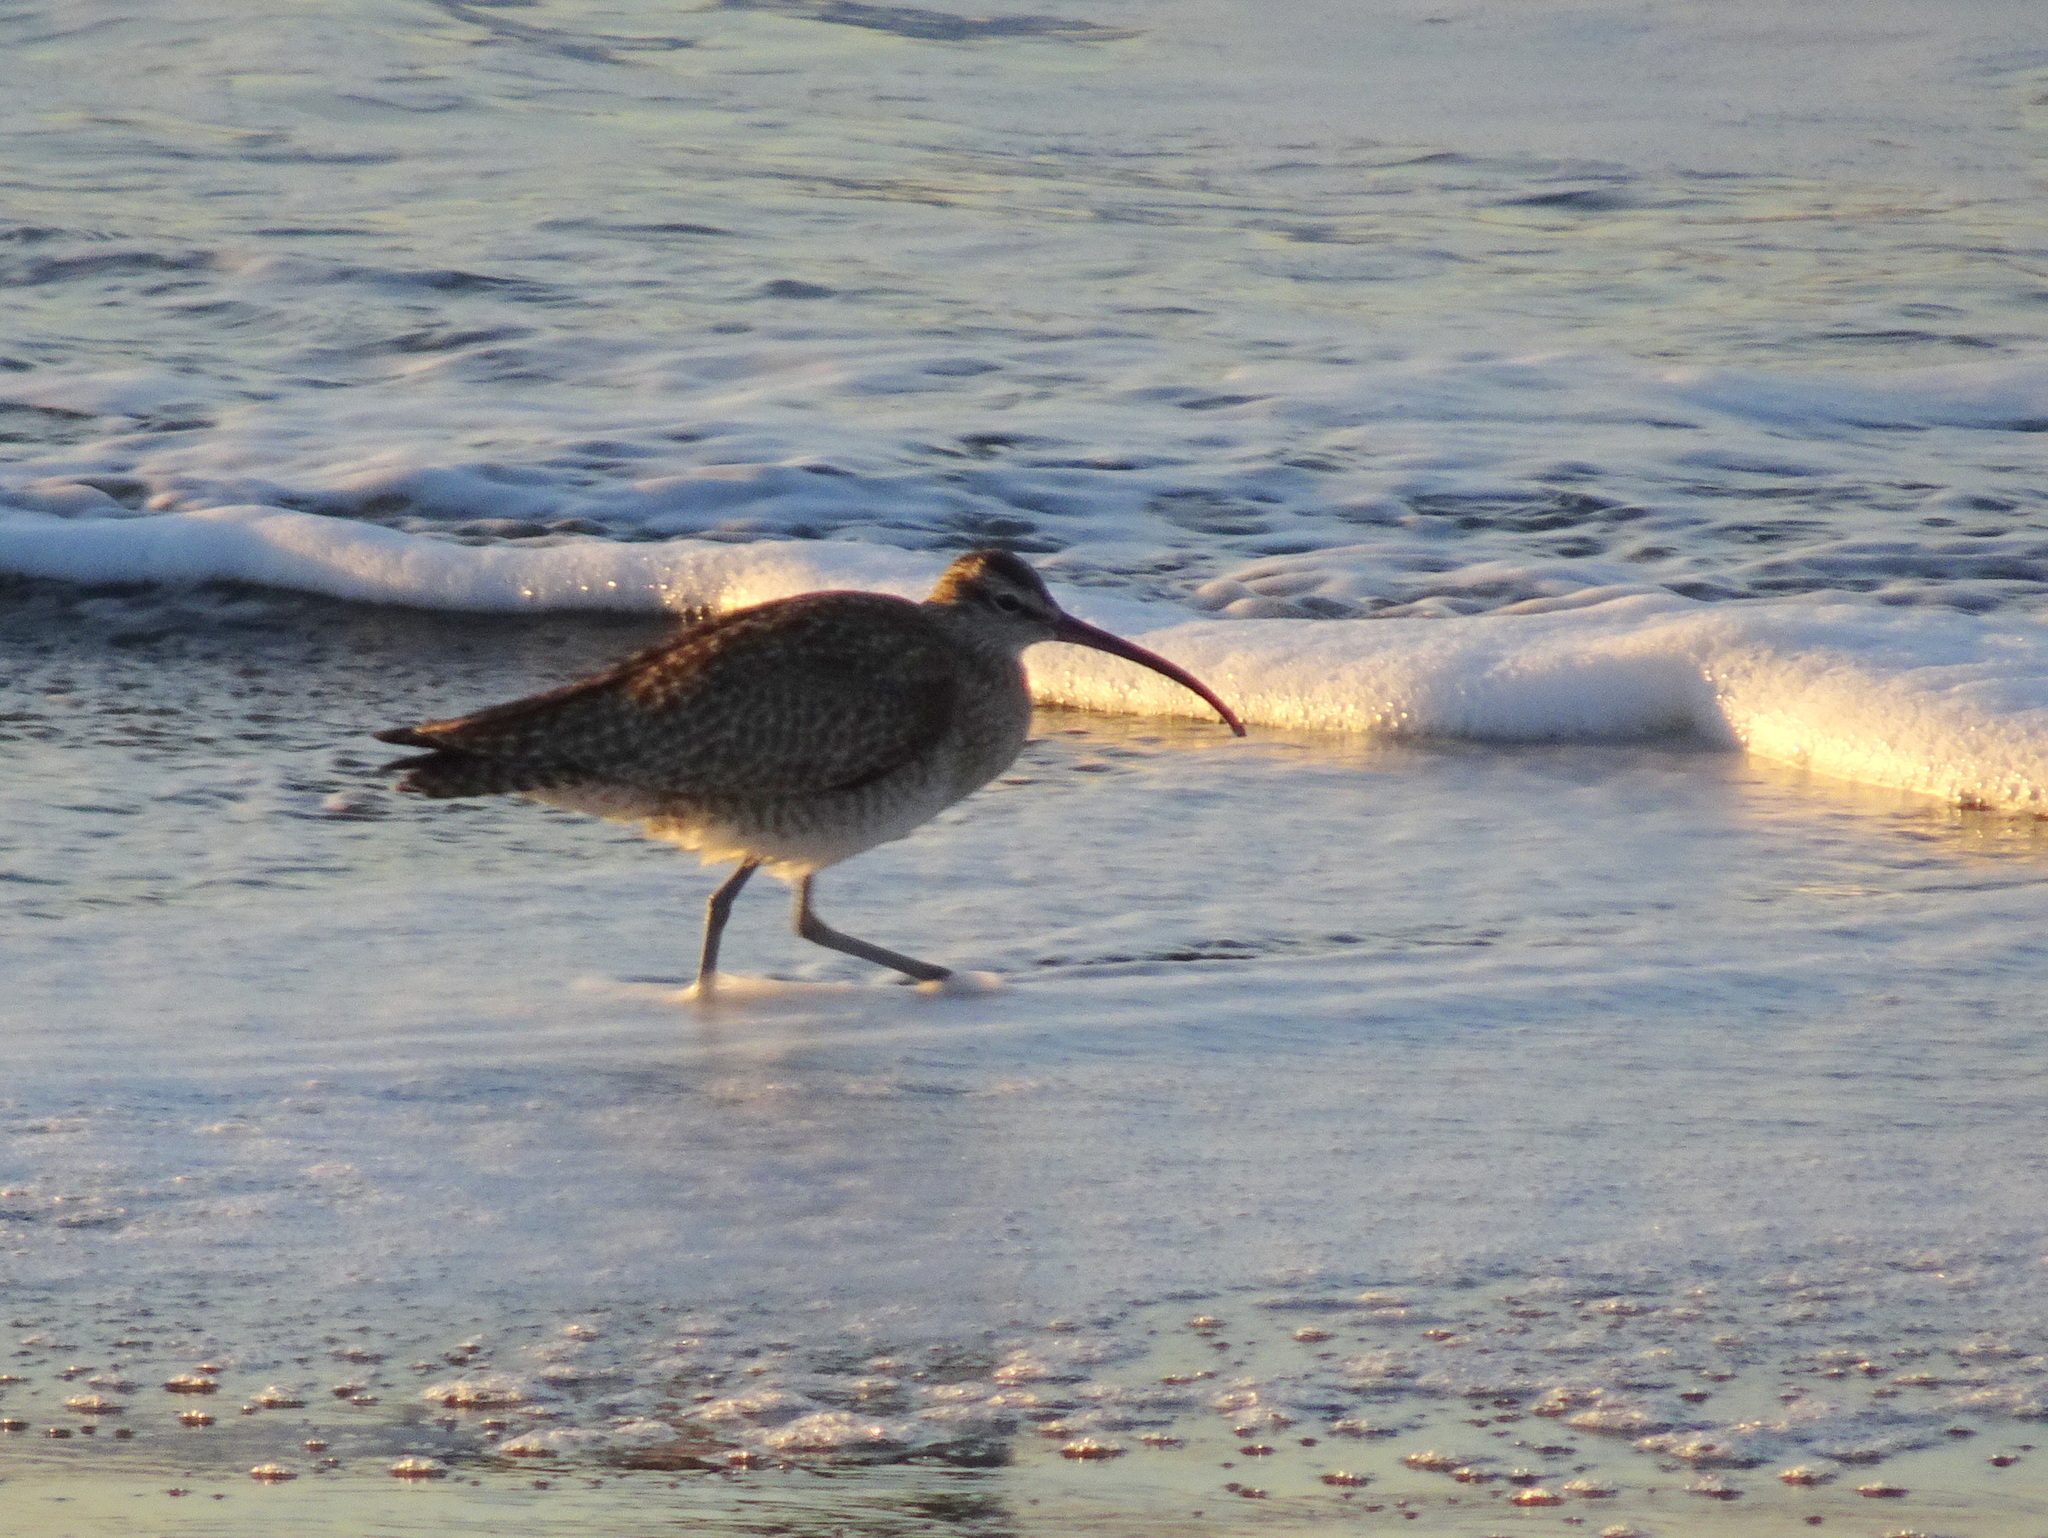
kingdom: Animalia
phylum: Chordata
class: Aves
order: Charadriiformes
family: Scolopacidae
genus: Numenius
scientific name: Numenius phaeopus
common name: Whimbrel
